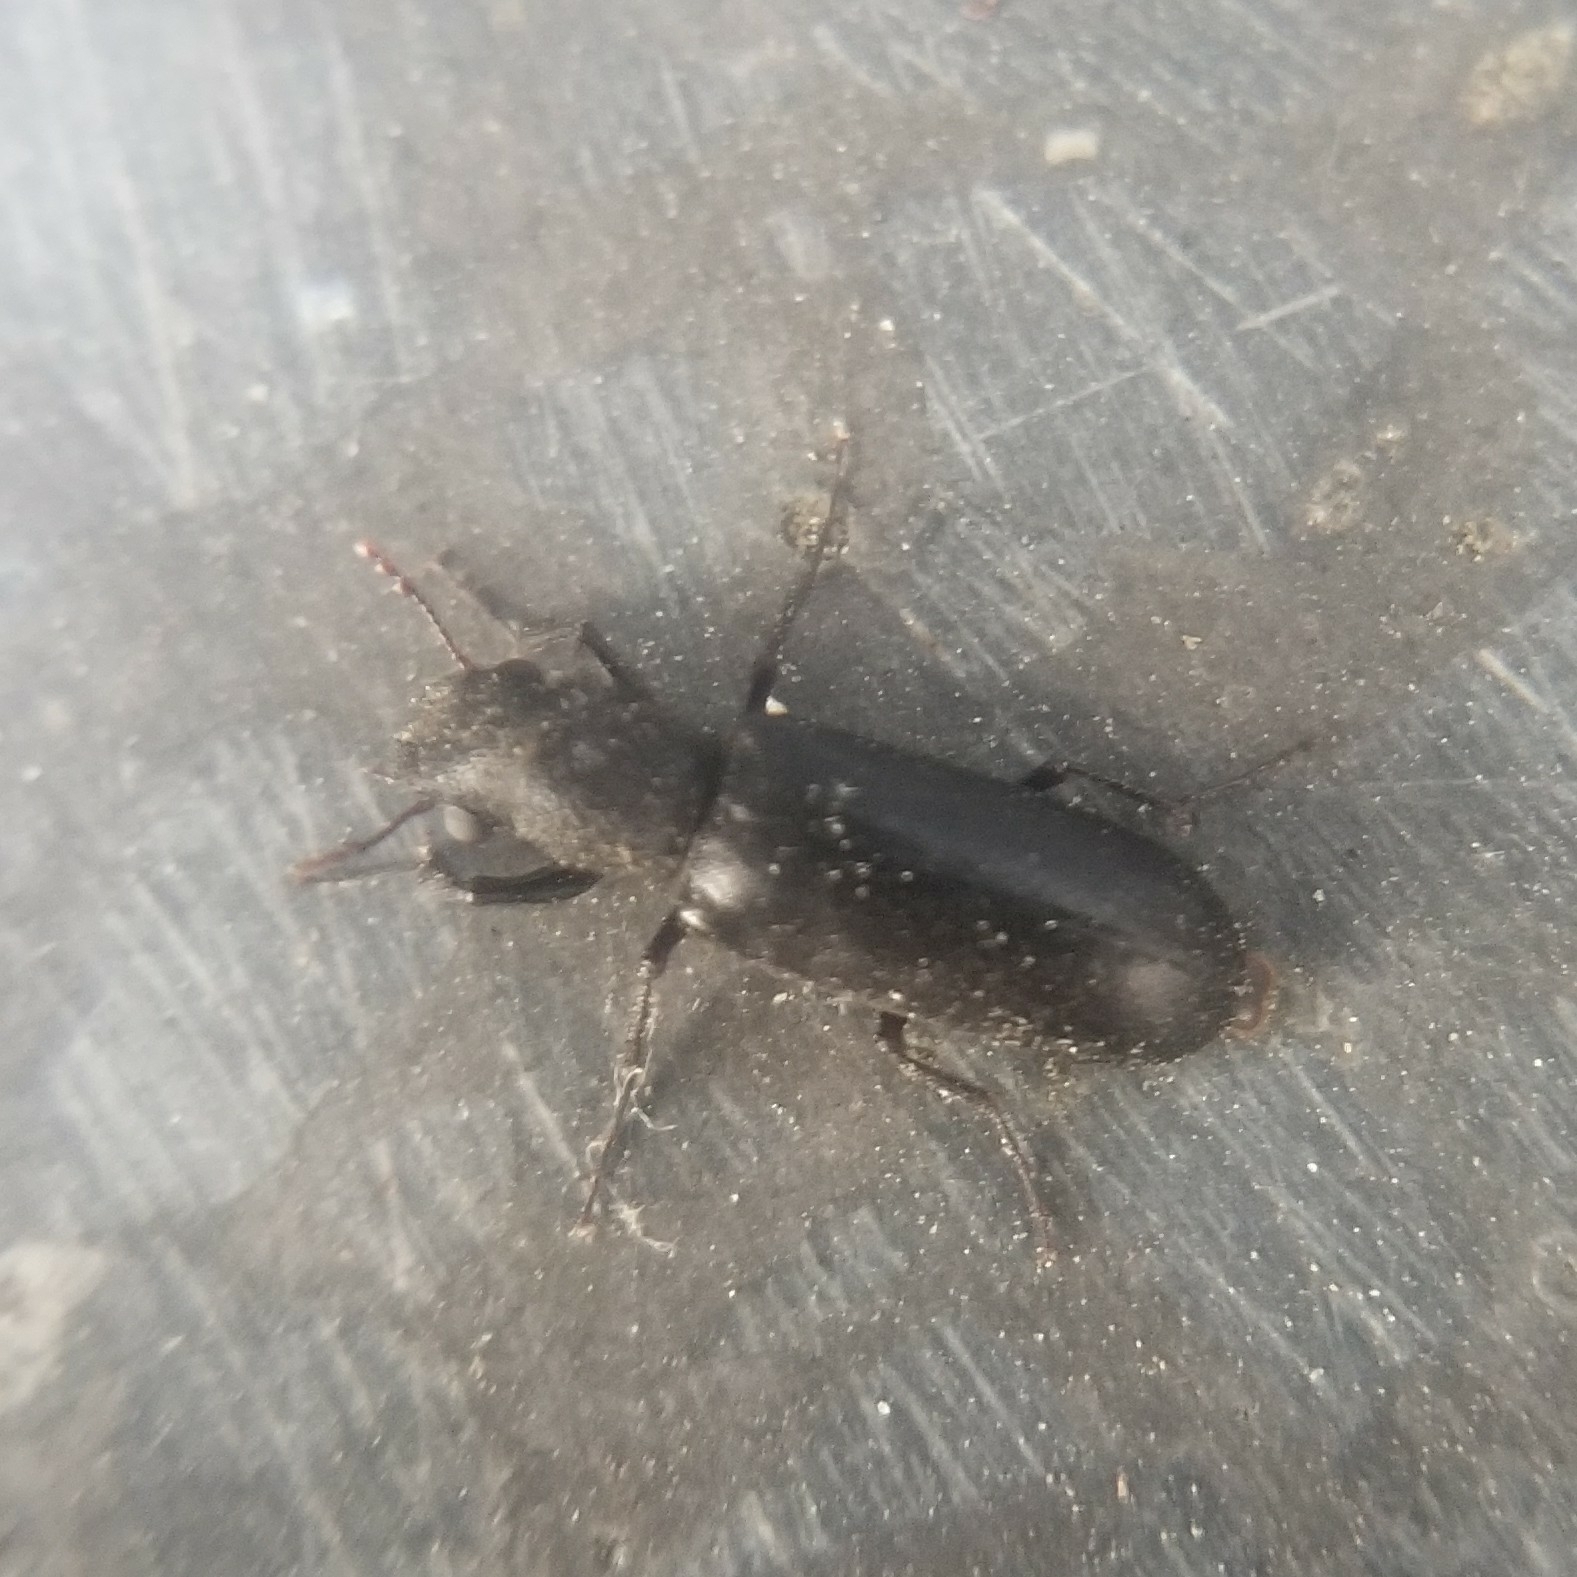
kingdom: Animalia
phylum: Arthropoda
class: Insecta
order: Coleoptera
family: Bostrichidae
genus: Polycaon
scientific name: Polycaon stoutii
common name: Powderpost beetle
